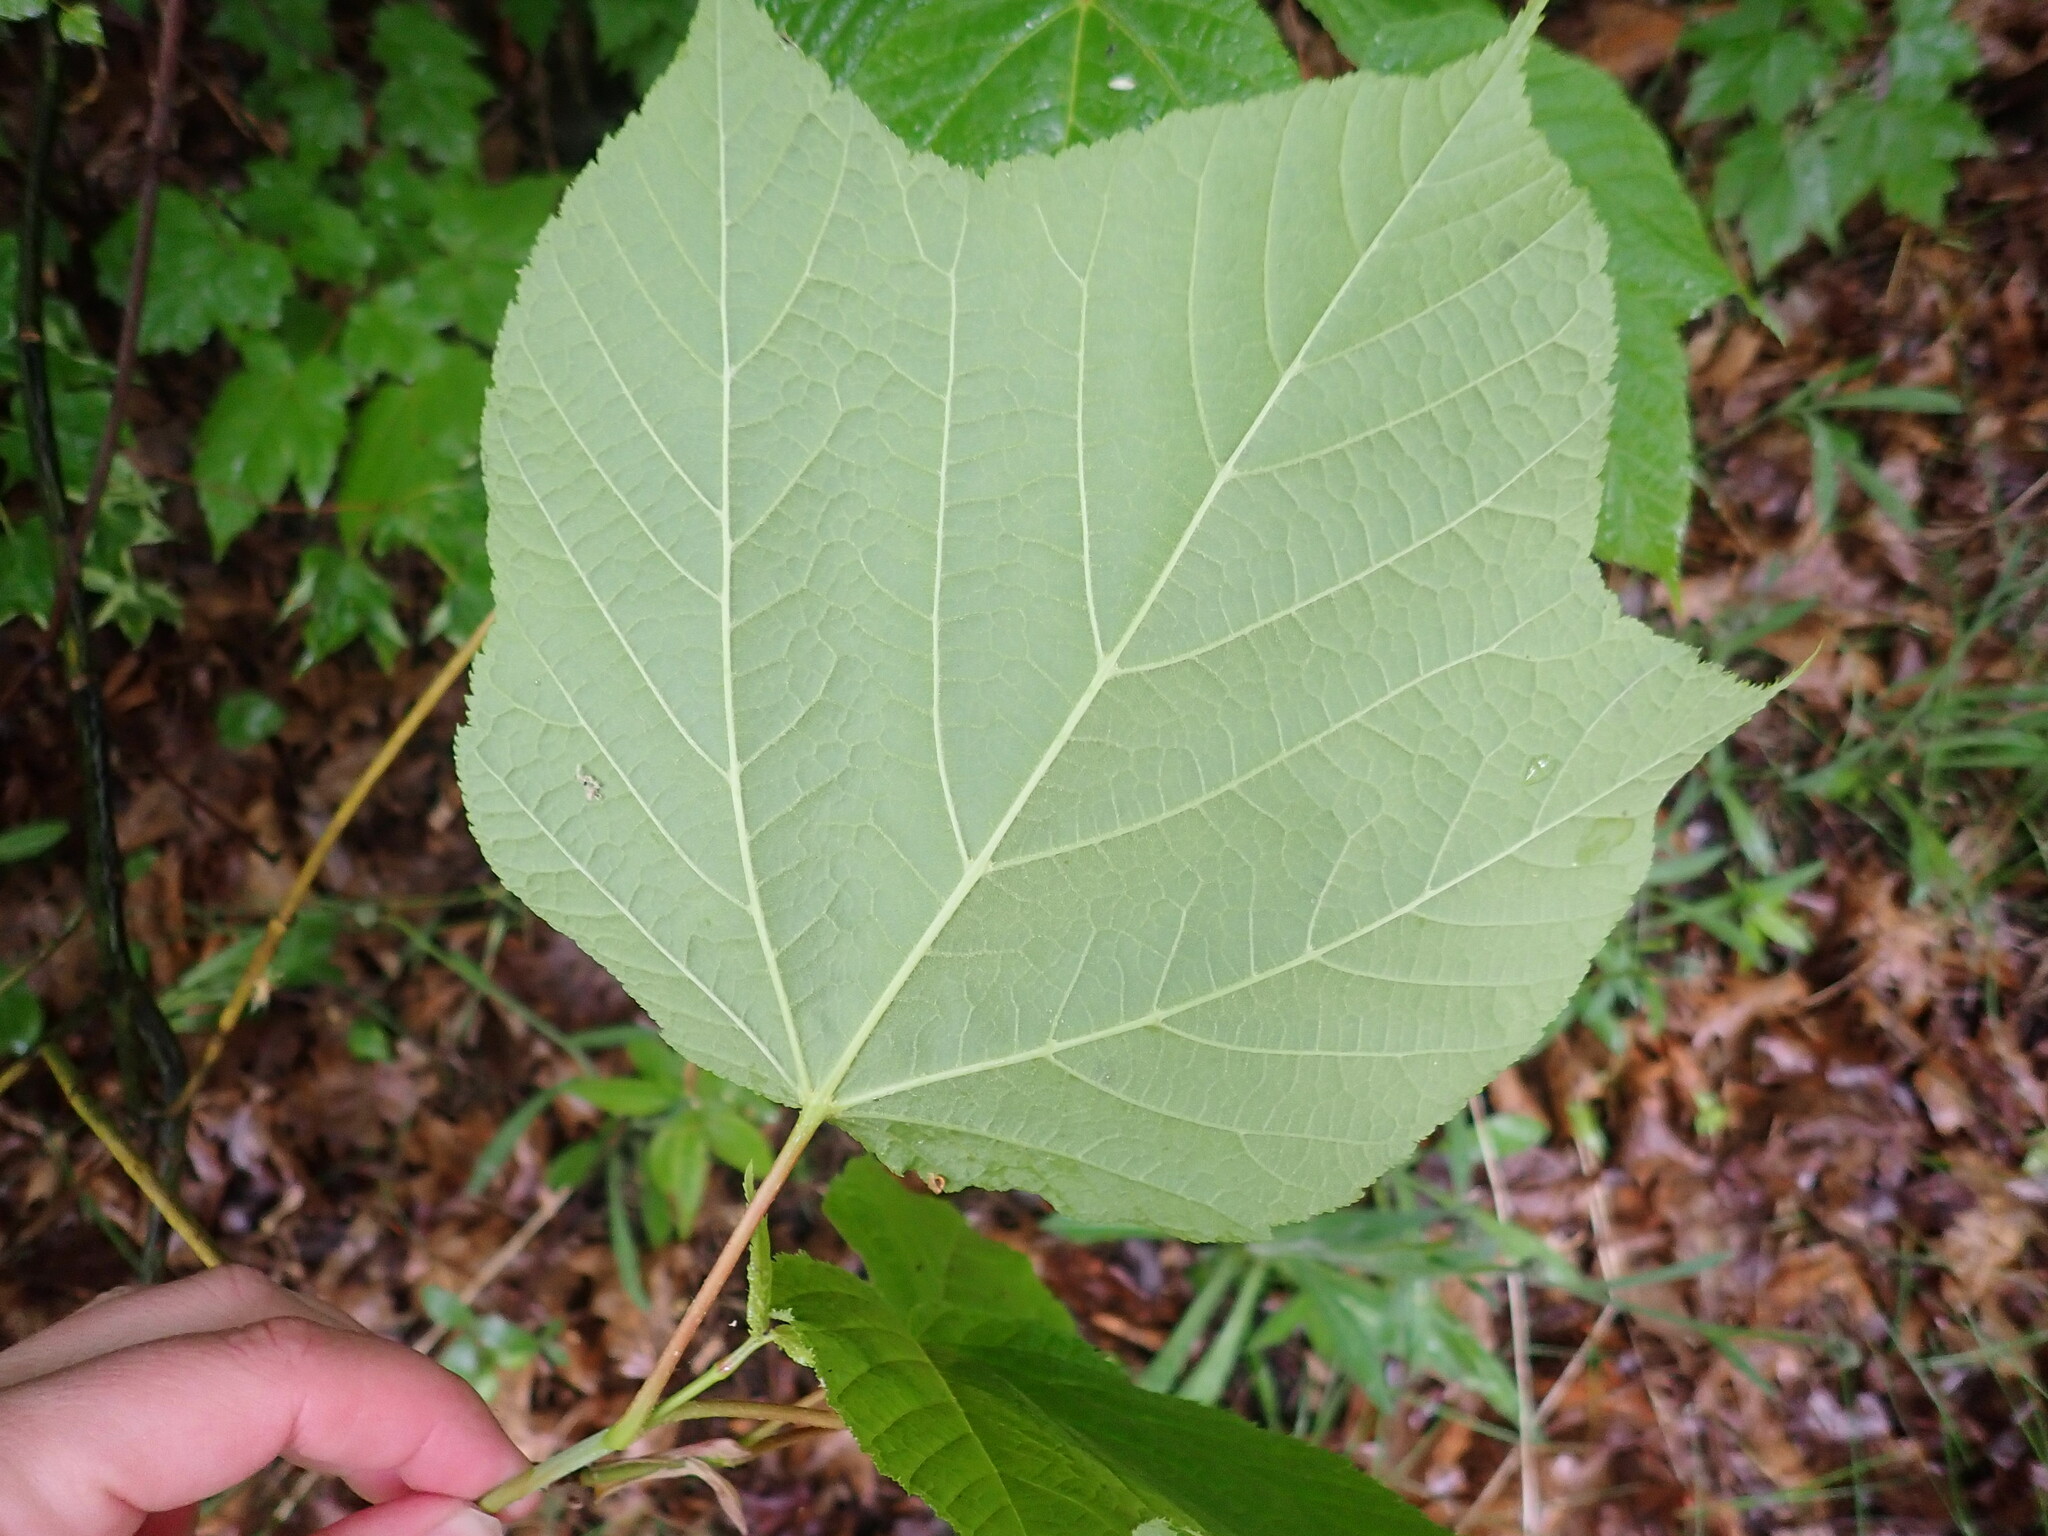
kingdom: Plantae
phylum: Tracheophyta
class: Magnoliopsida
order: Sapindales
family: Sapindaceae
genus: Acer
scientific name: Acer pensylvanicum
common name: Moosewood
